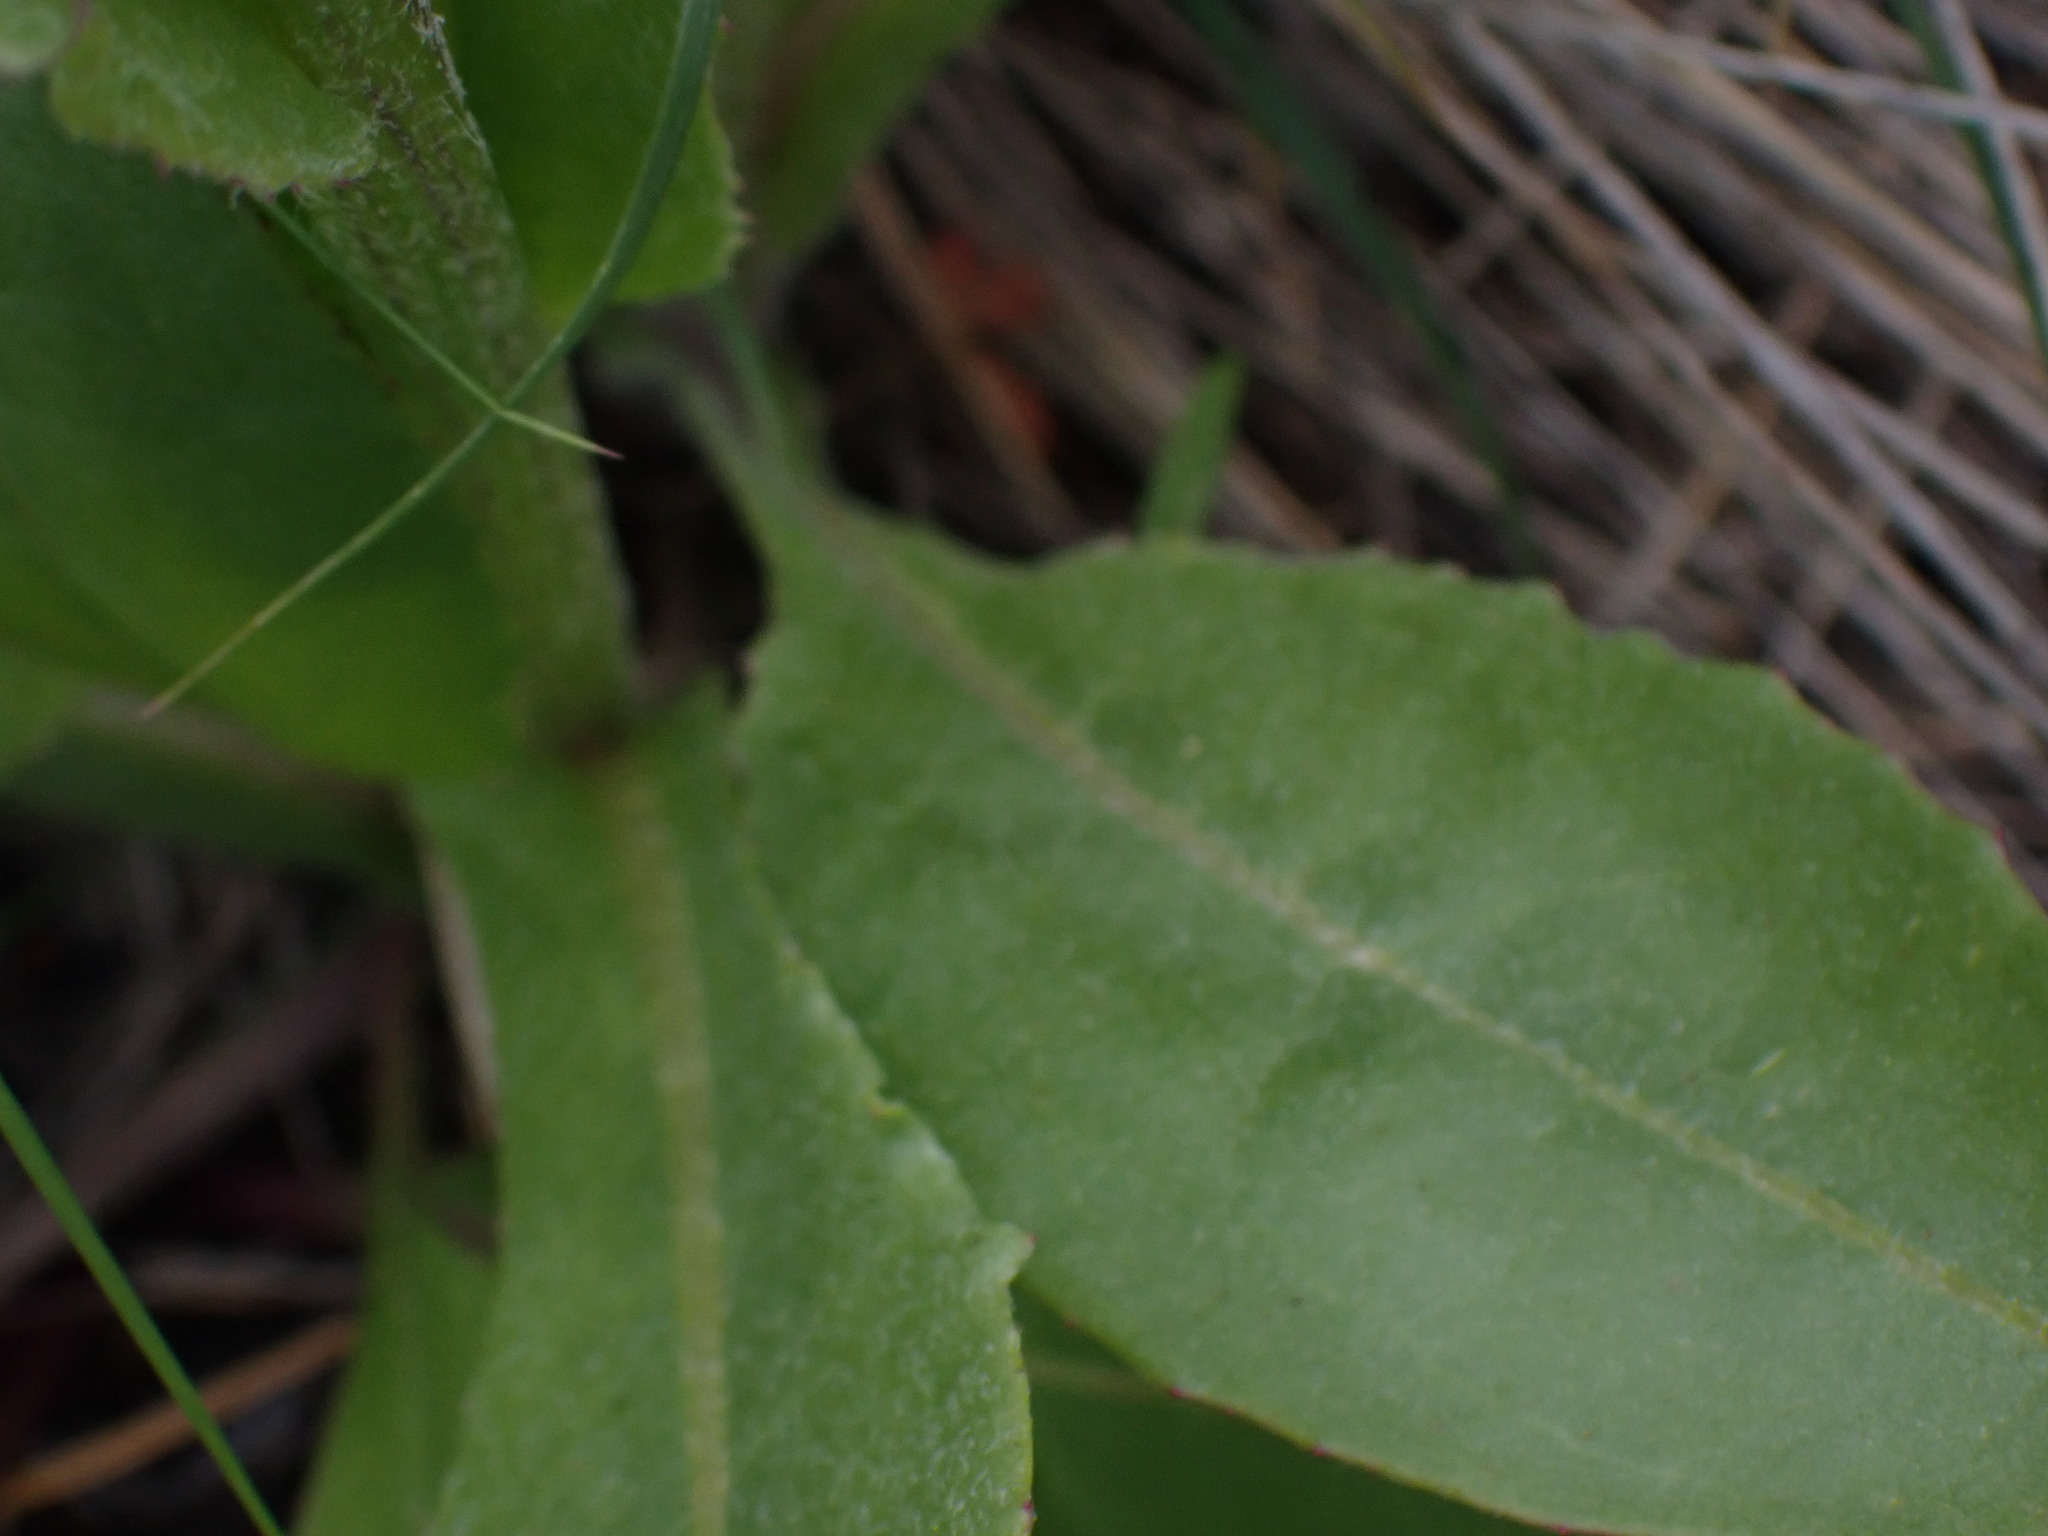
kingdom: Plantae
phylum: Tracheophyta
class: Magnoliopsida
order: Asterales
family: Asteraceae
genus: Senecio
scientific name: Senecio integerrimus
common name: Gaugeplant
